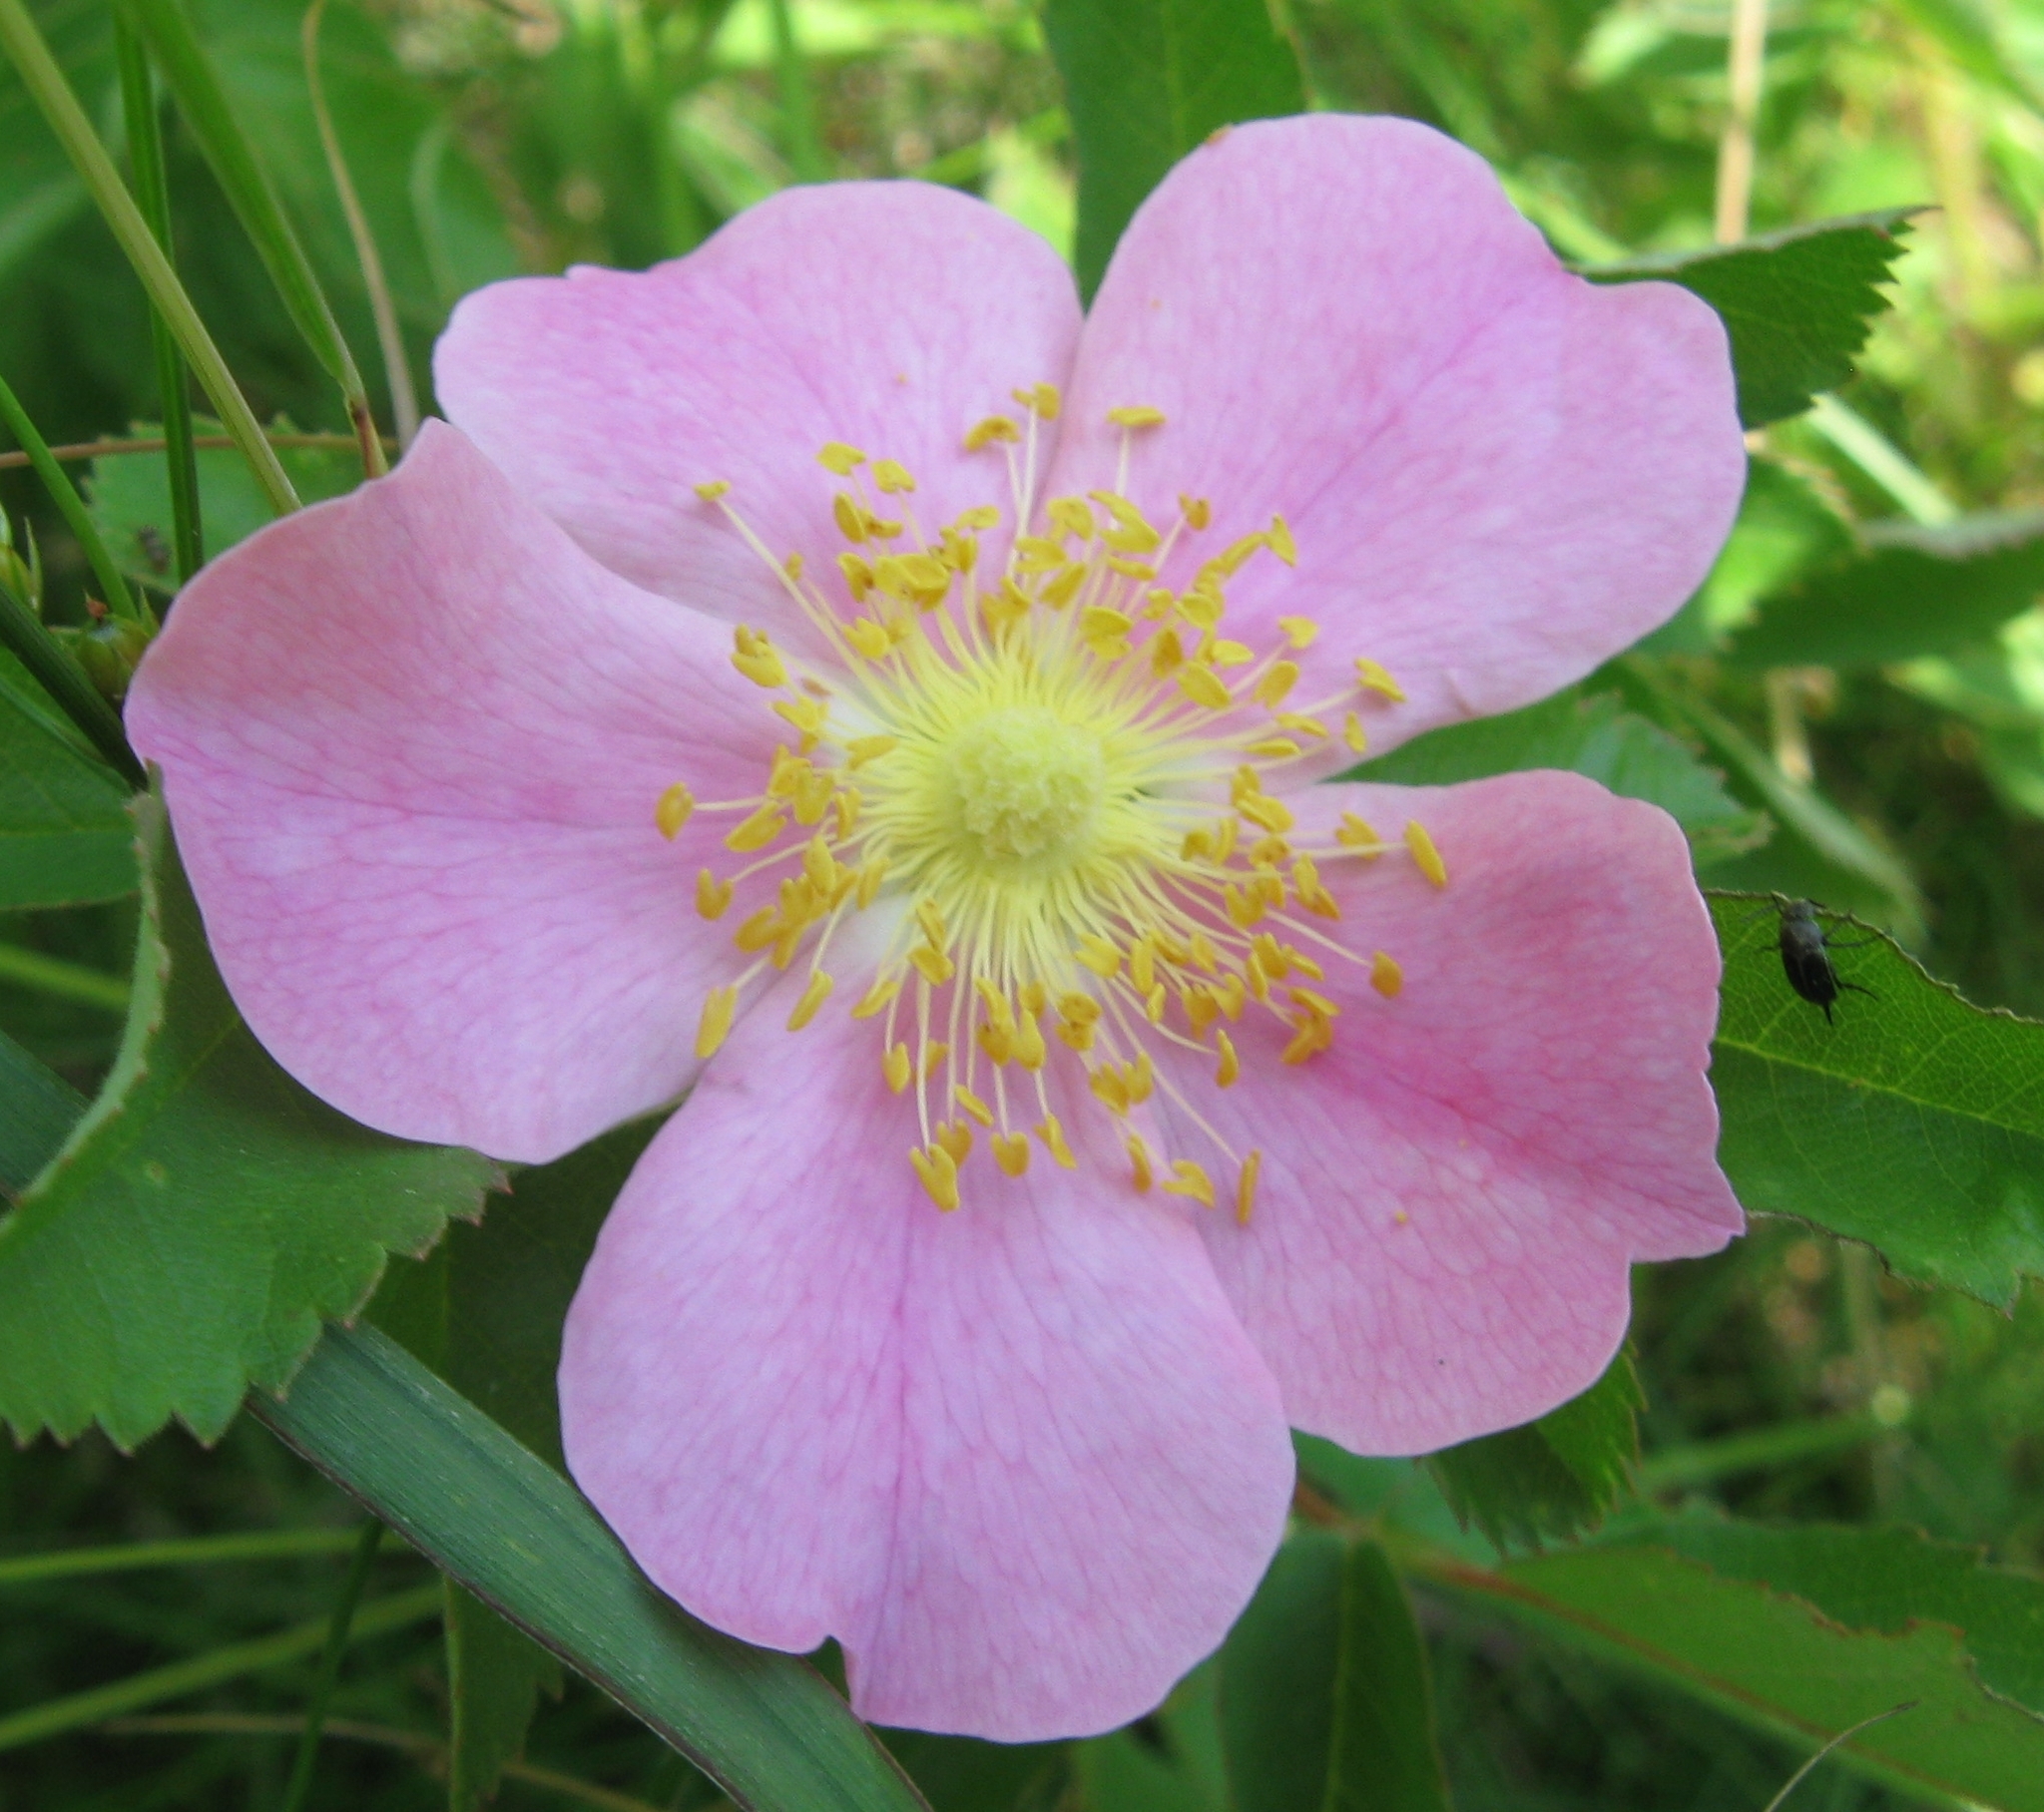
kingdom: Plantae
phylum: Tracheophyta
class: Magnoliopsida
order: Rosales
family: Rosaceae
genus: Rosa
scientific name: Rosa arkansana
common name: Prairie rose
